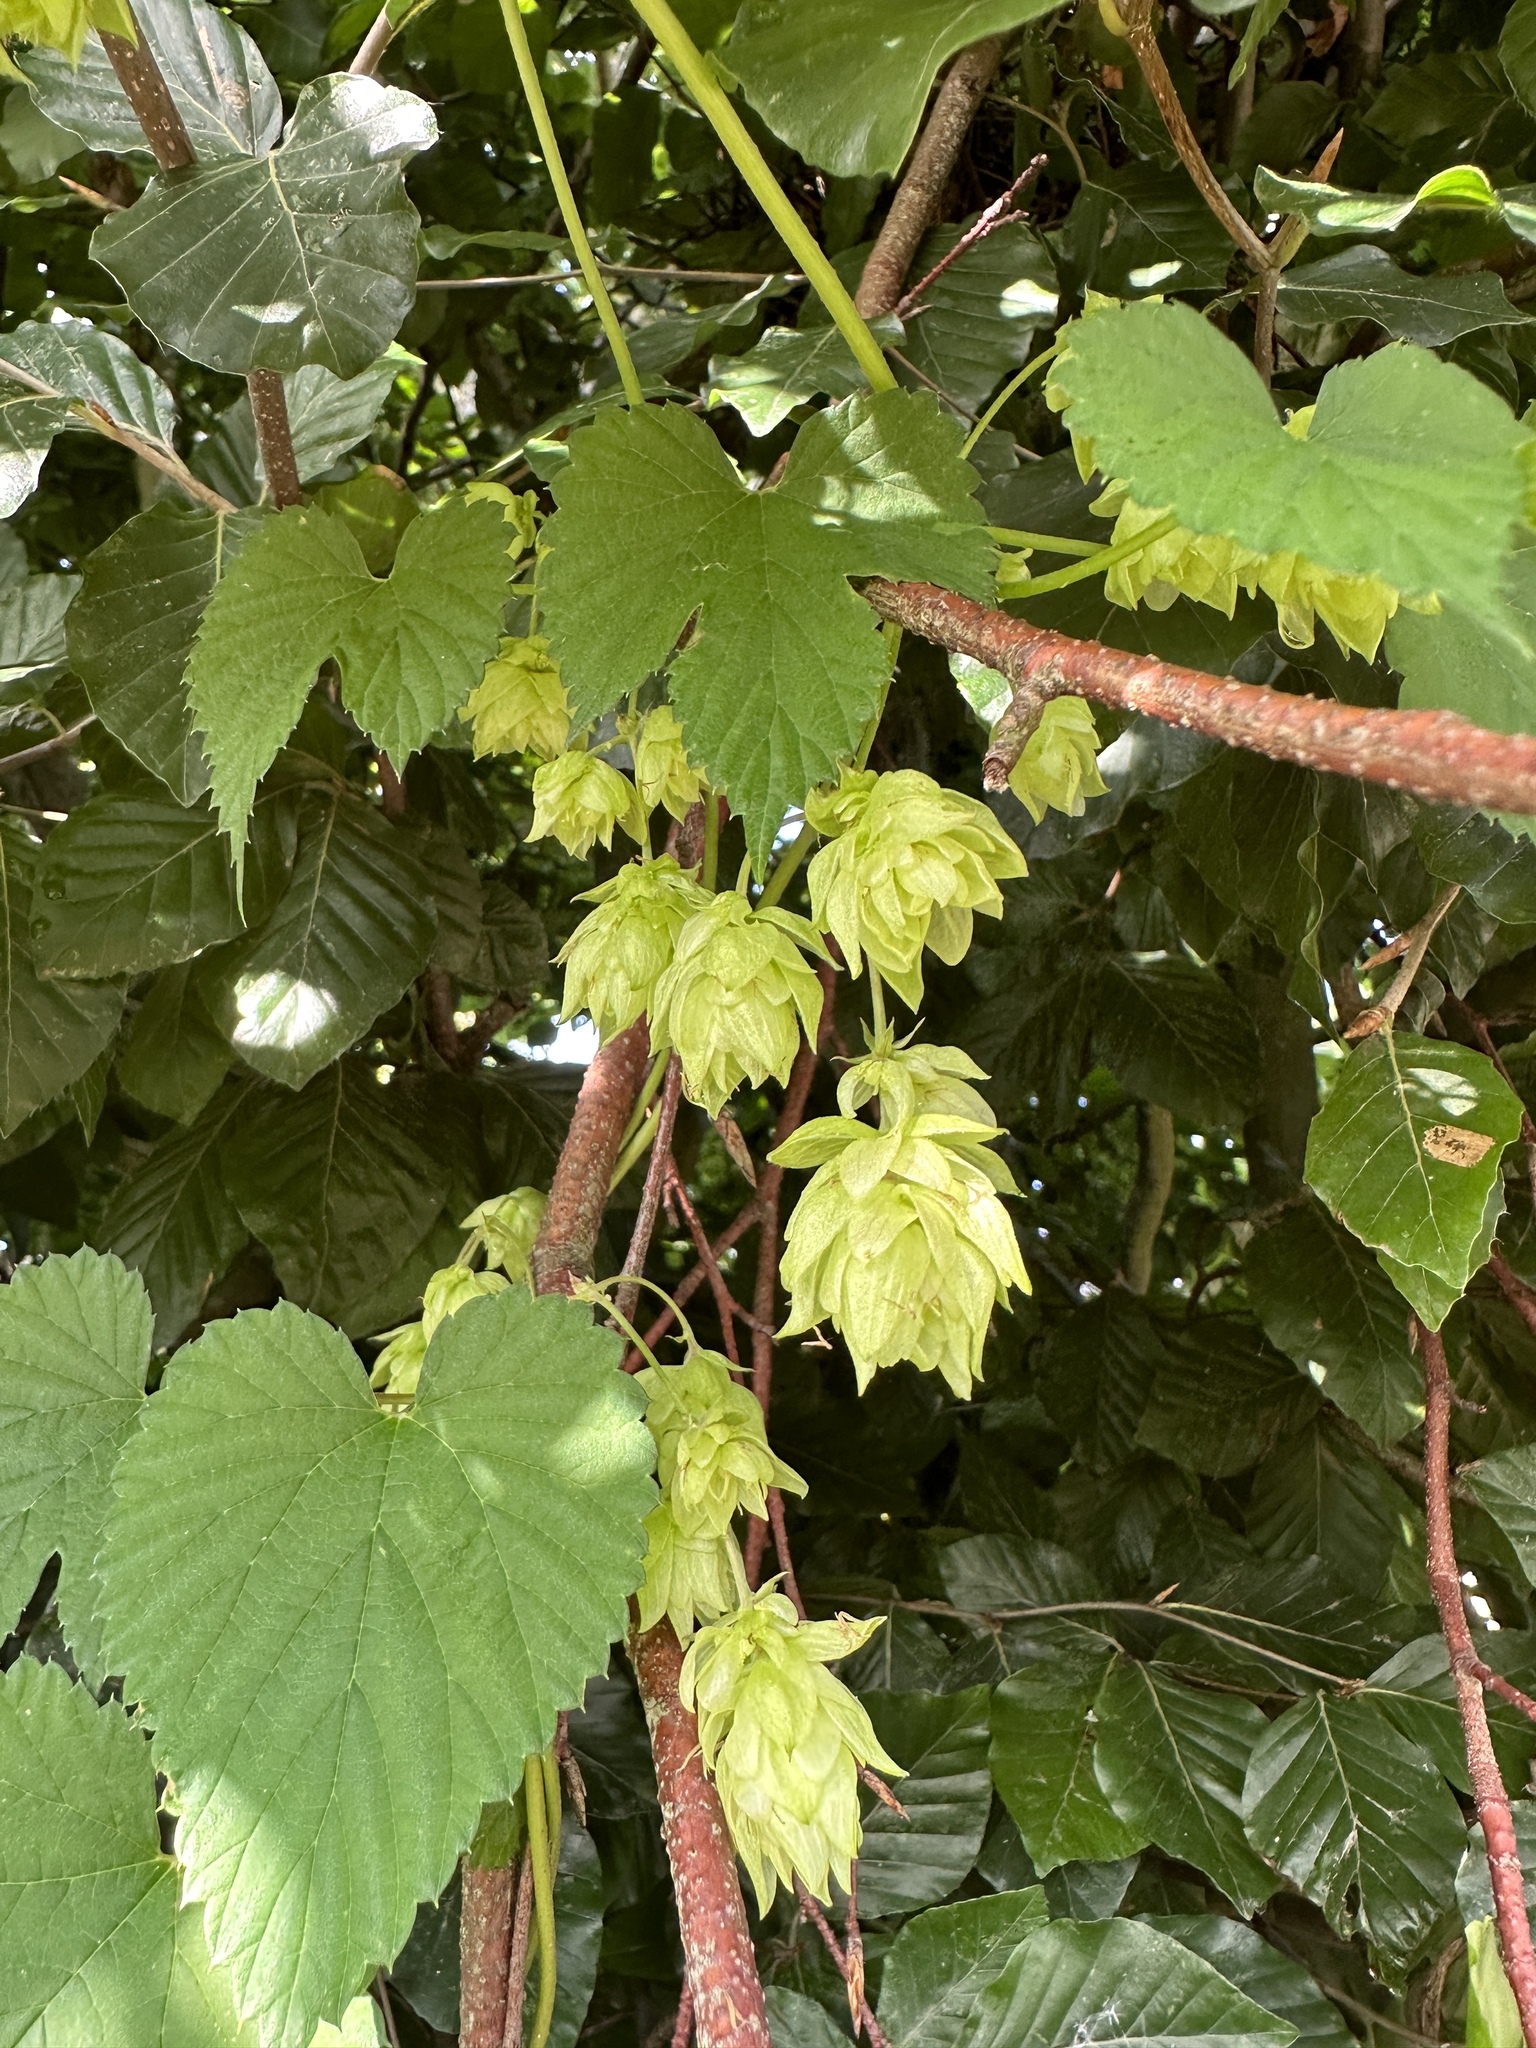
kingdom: Plantae
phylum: Tracheophyta
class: Magnoliopsida
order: Rosales
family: Cannabaceae
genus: Humulus
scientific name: Humulus lupulus
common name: Hop
